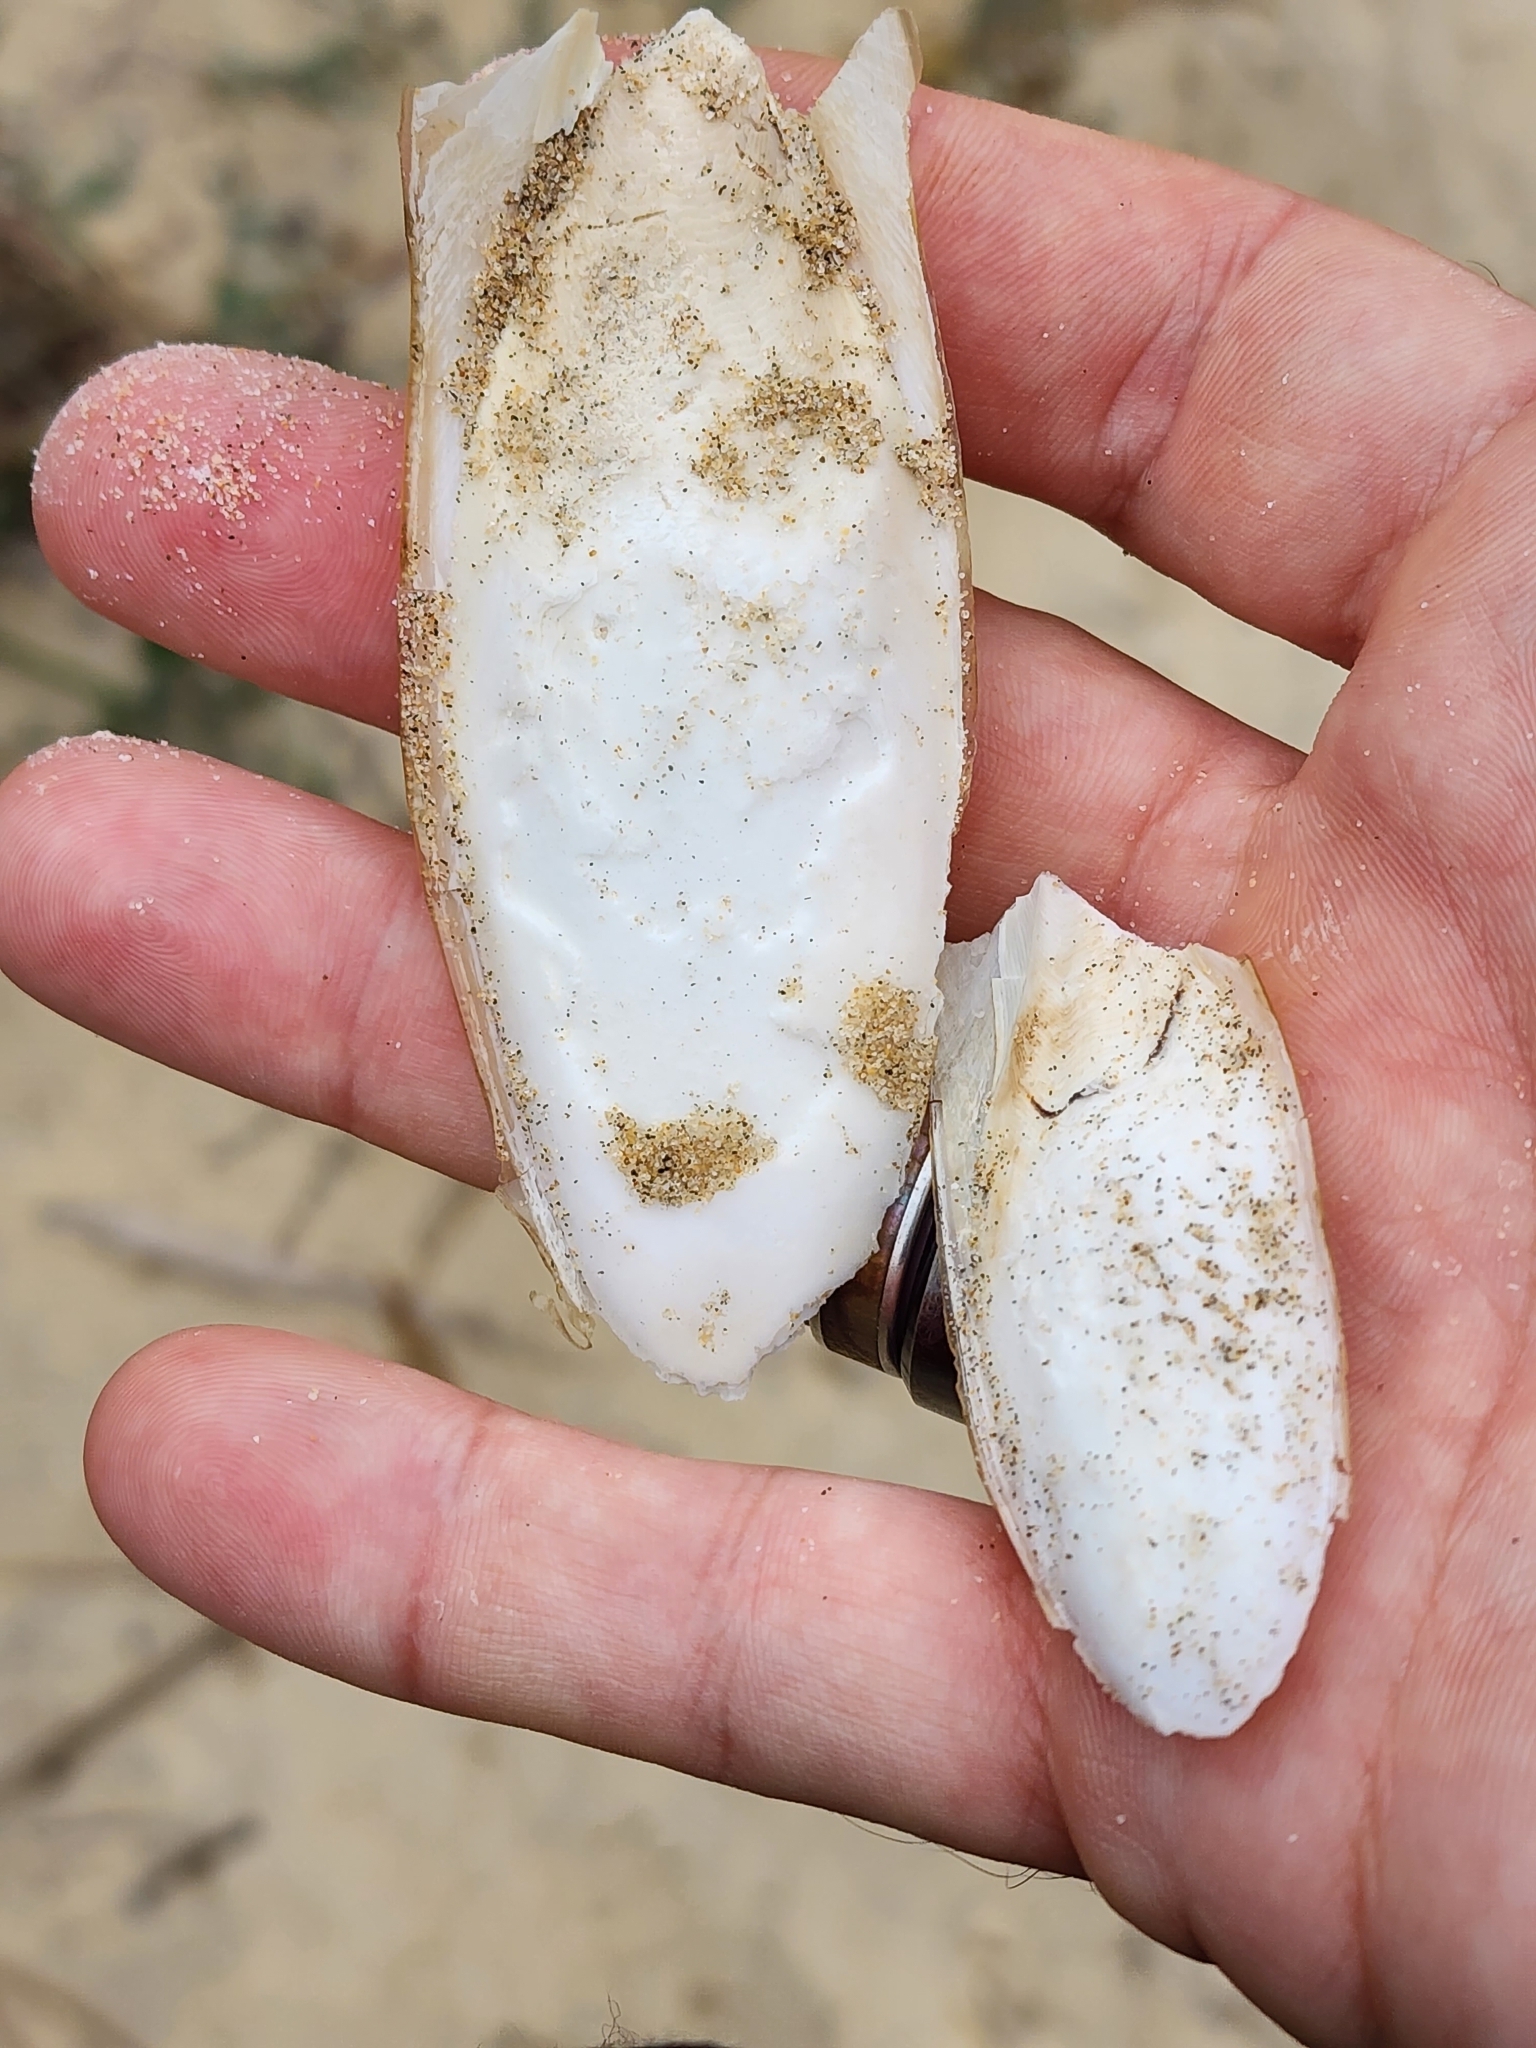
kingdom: Animalia
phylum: Mollusca
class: Cephalopoda
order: Sepiida
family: Sepiidae
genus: Sepia
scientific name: Sepia officinalis
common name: Common cuttlefish
